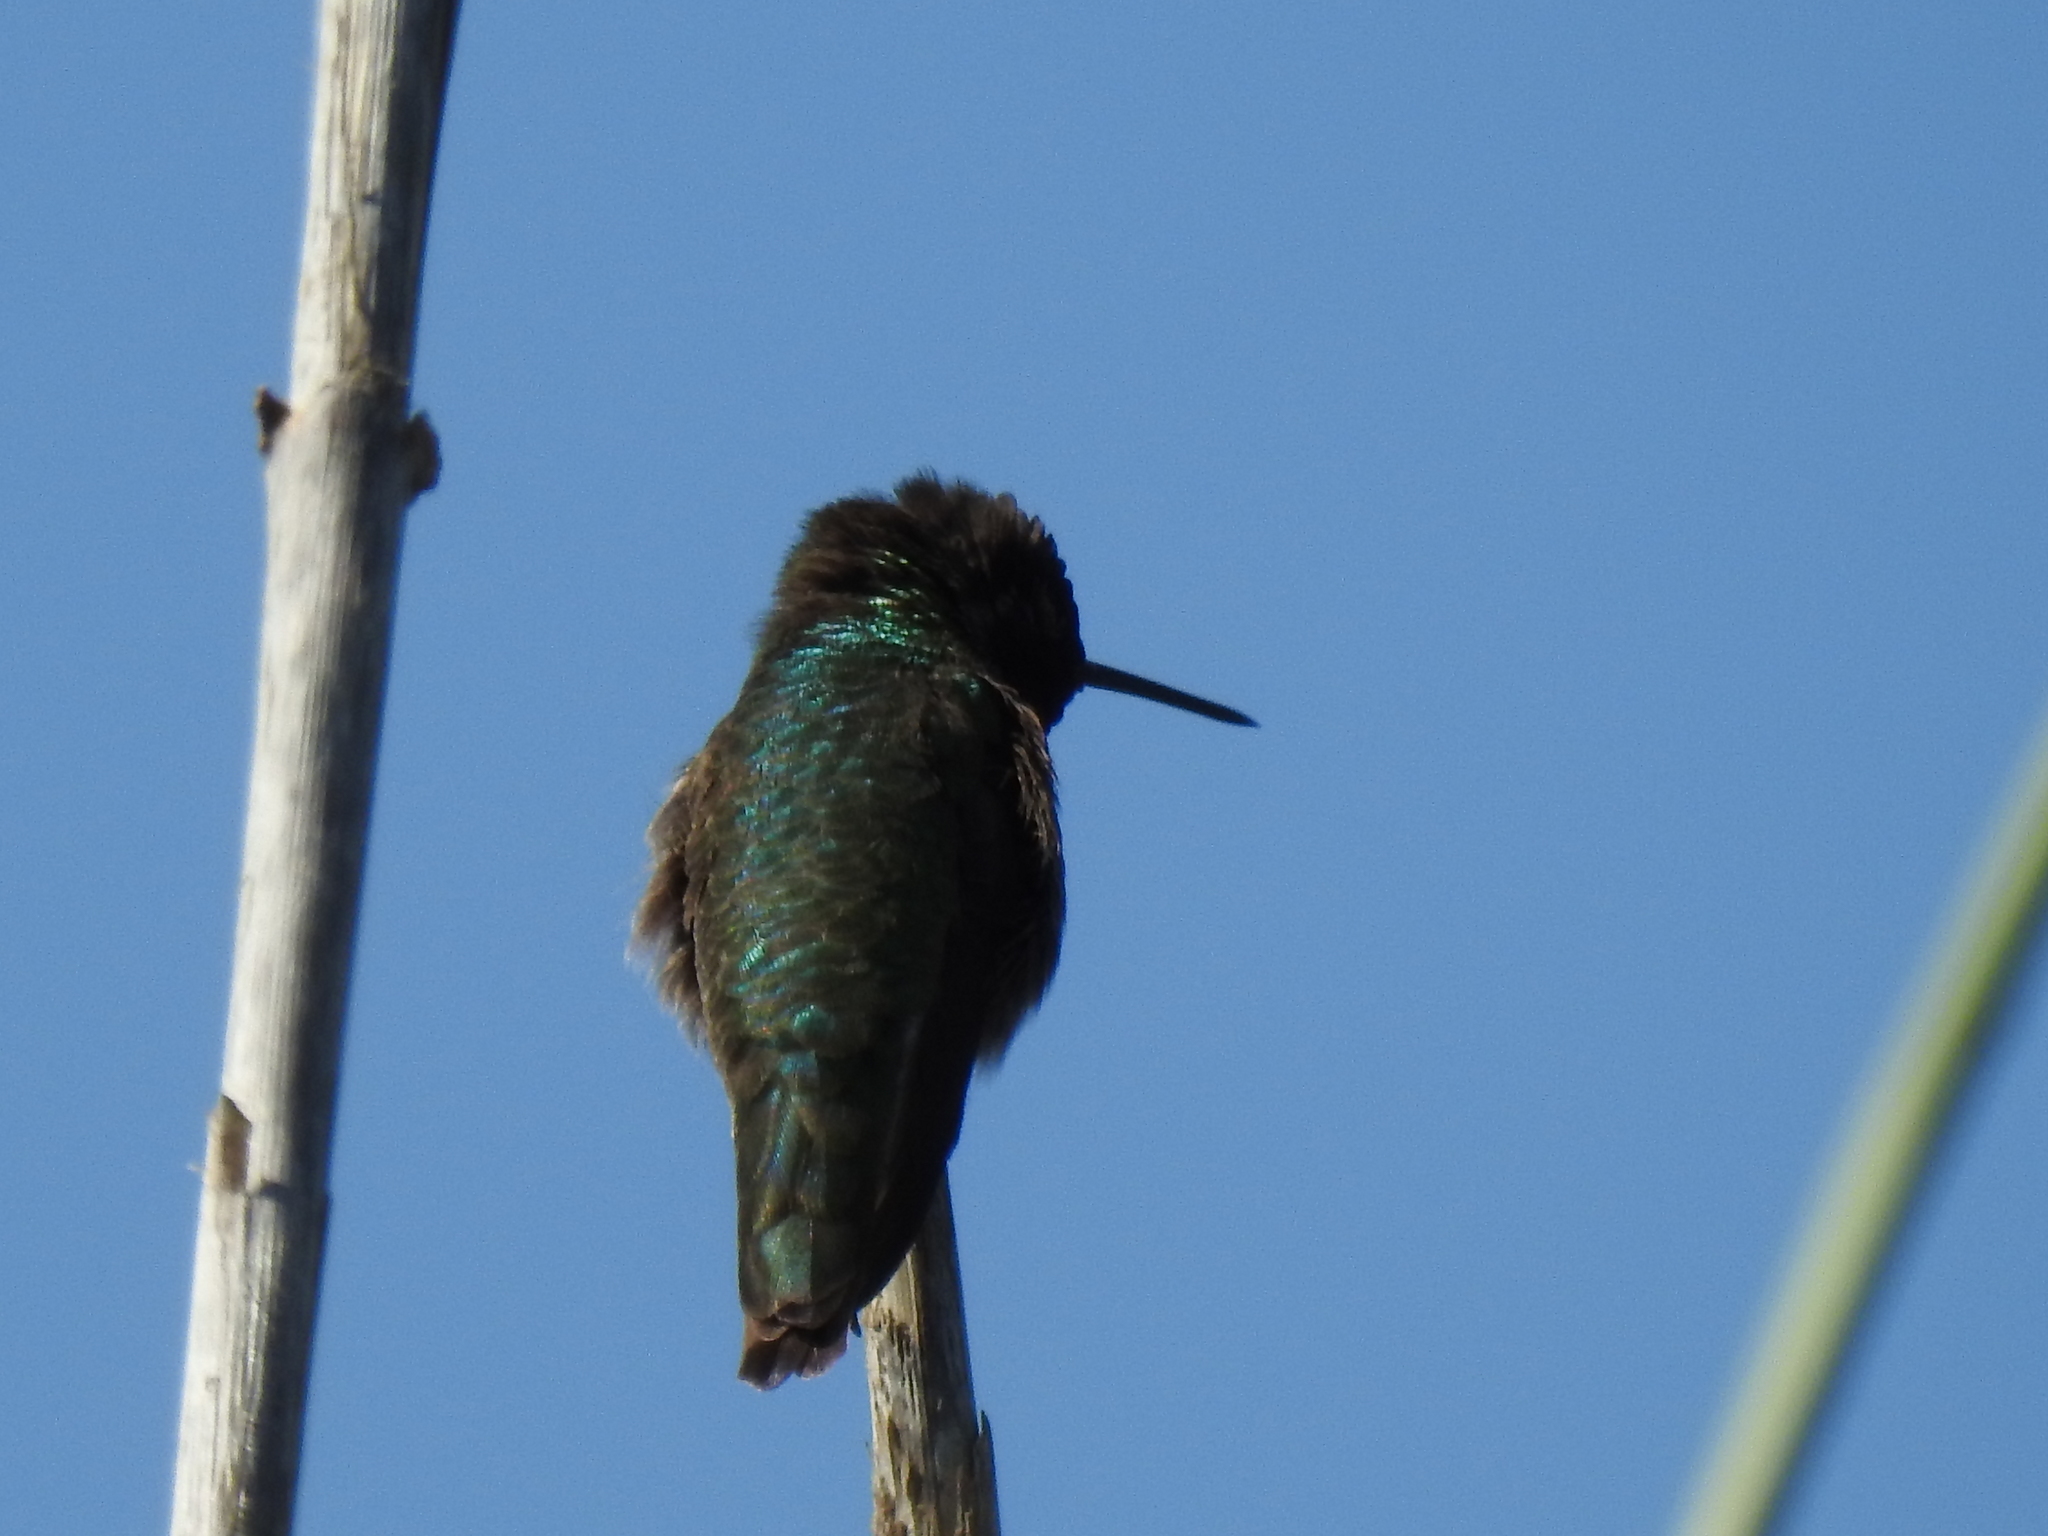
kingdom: Animalia
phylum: Chordata
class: Aves
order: Apodiformes
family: Trochilidae
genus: Calypte
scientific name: Calypte anna
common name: Anna's hummingbird
